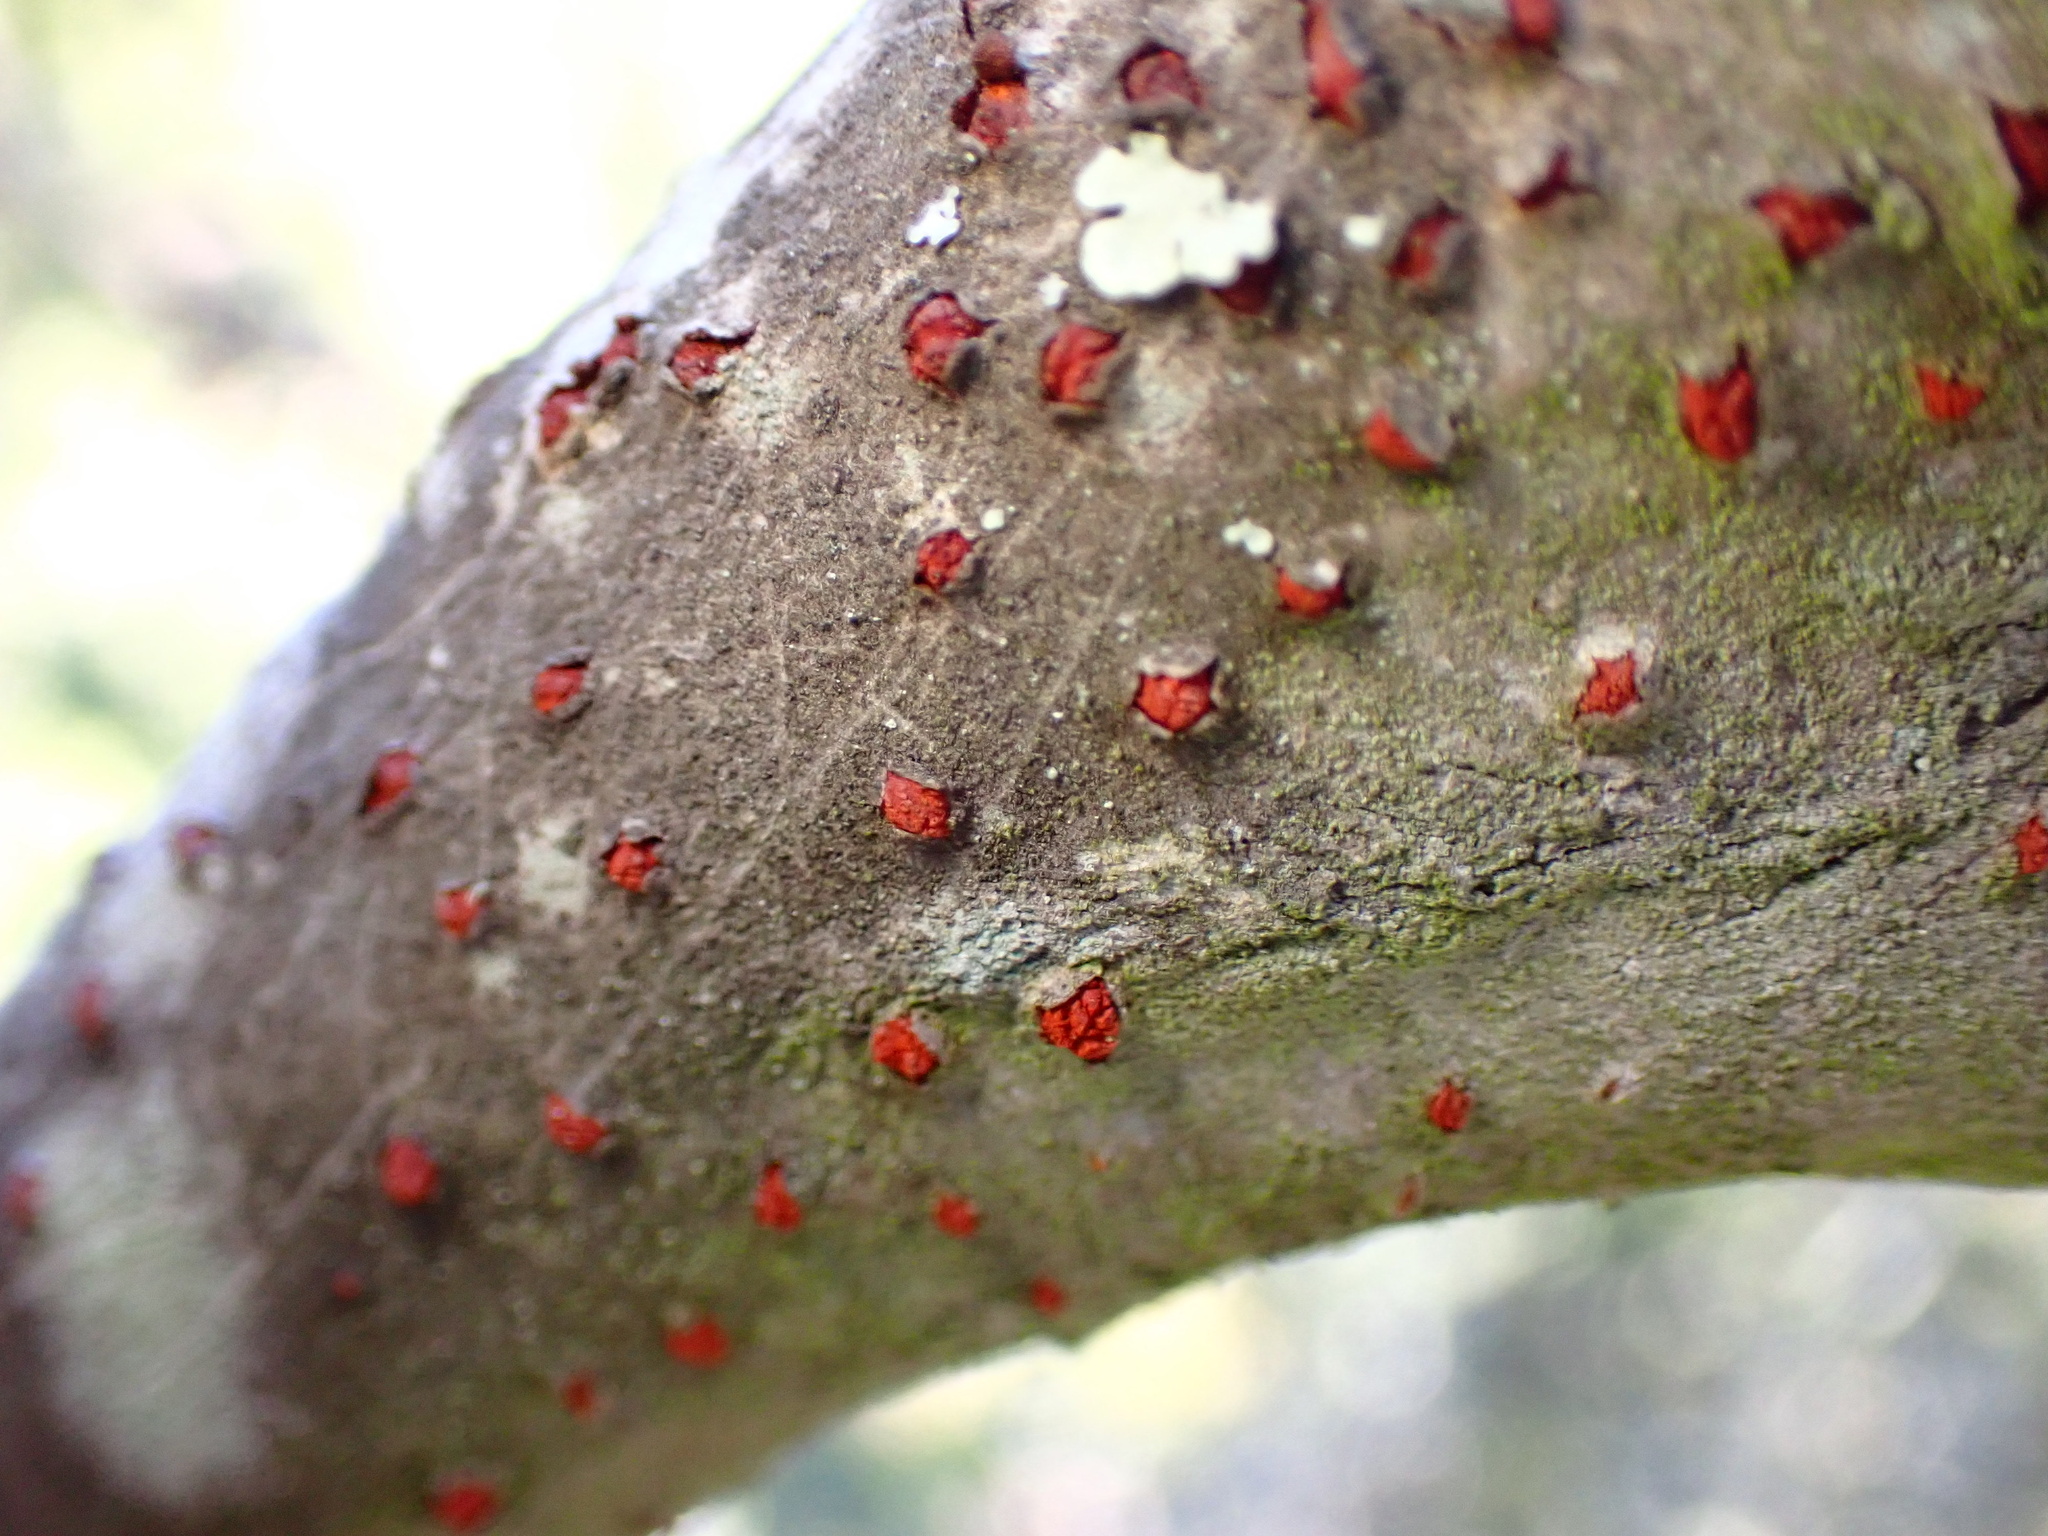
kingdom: Plantae
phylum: Tracheophyta
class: Magnoliopsida
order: Fagales
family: Fagaceae
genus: Chrysolepis
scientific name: Chrysolepis chrysophylla
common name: Giant chinquapin
